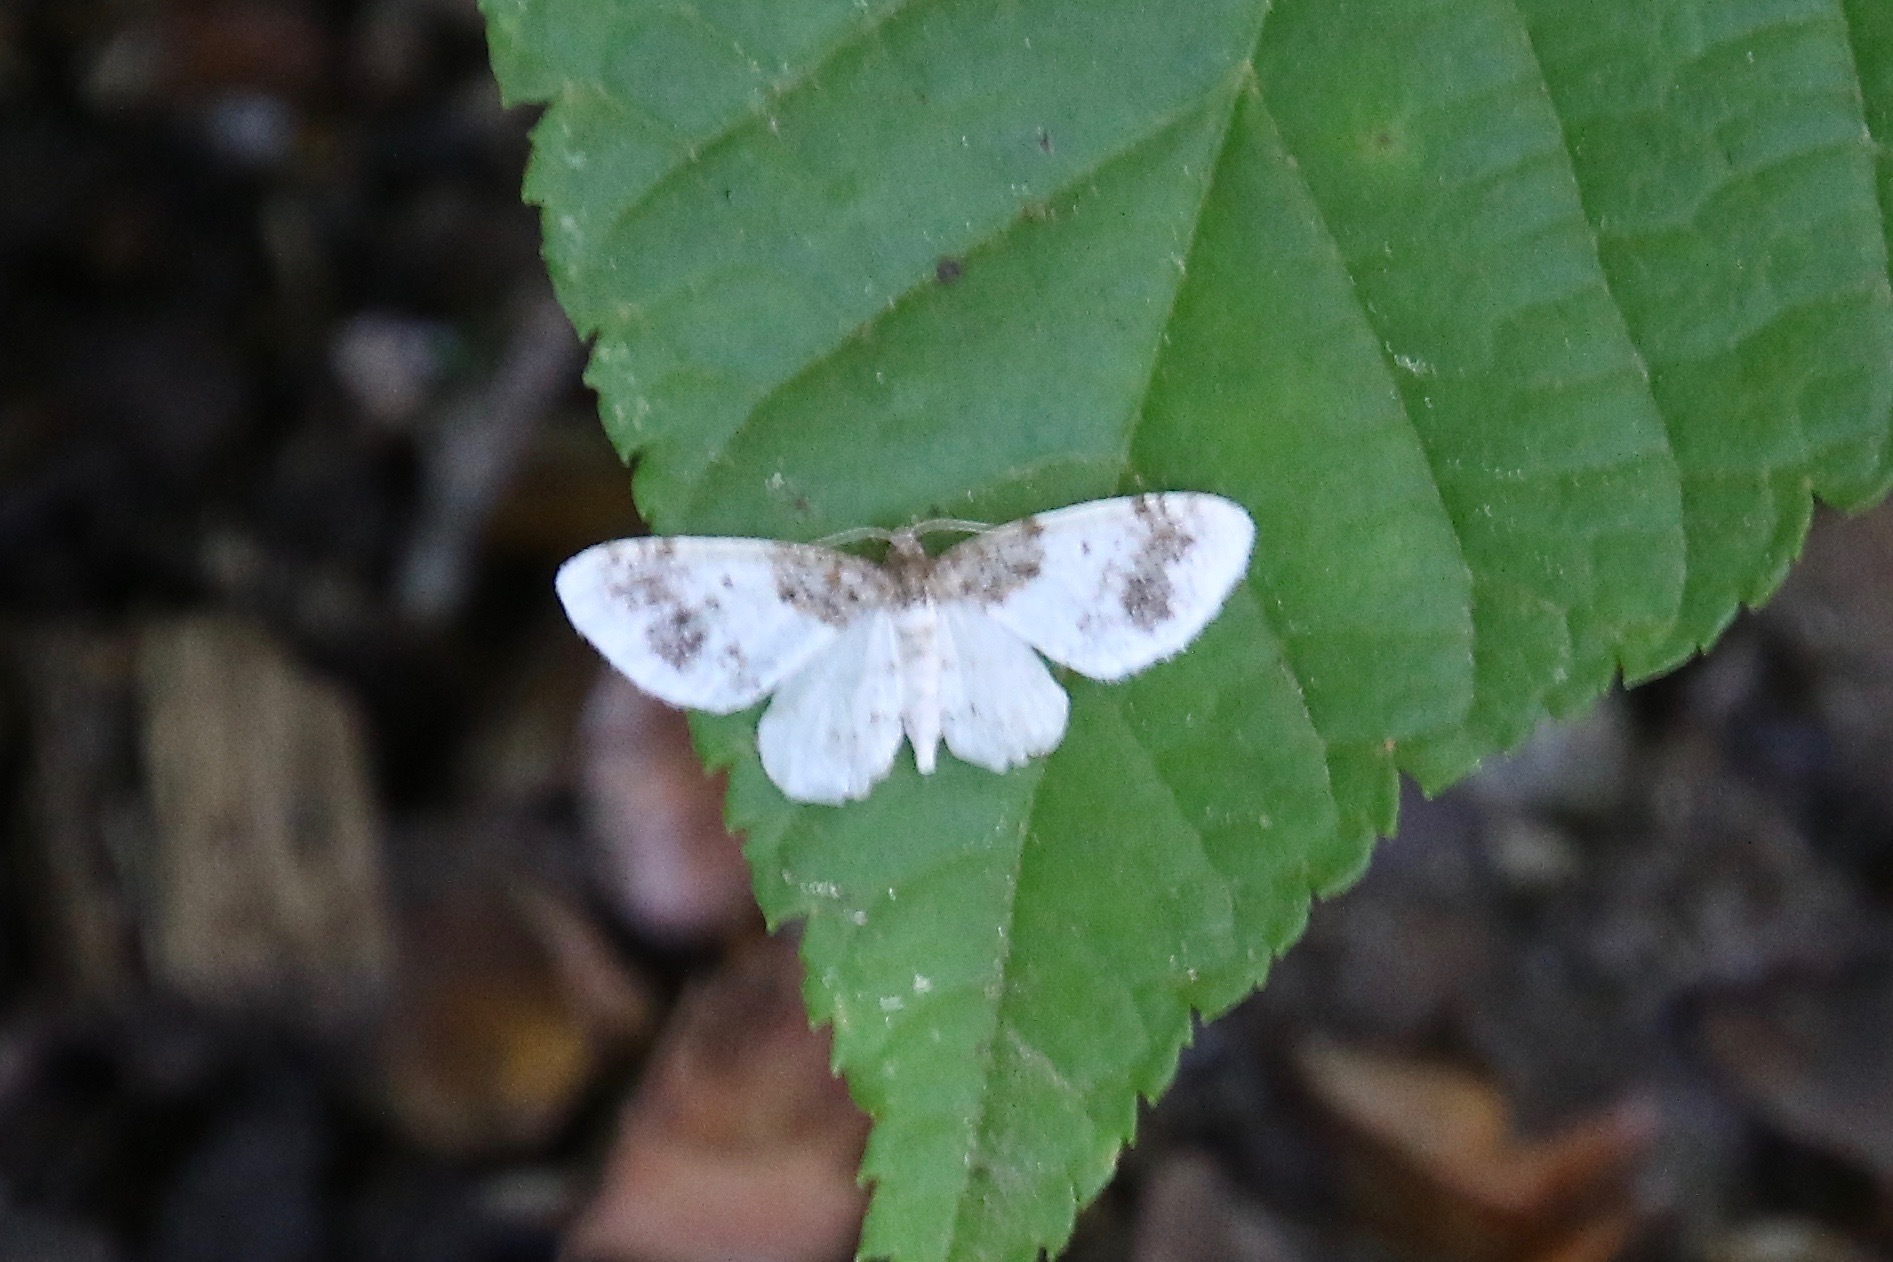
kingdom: Animalia
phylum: Arthropoda
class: Insecta
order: Lepidoptera
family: Geometridae
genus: Hydrelia
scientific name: Hydrelia condensata
